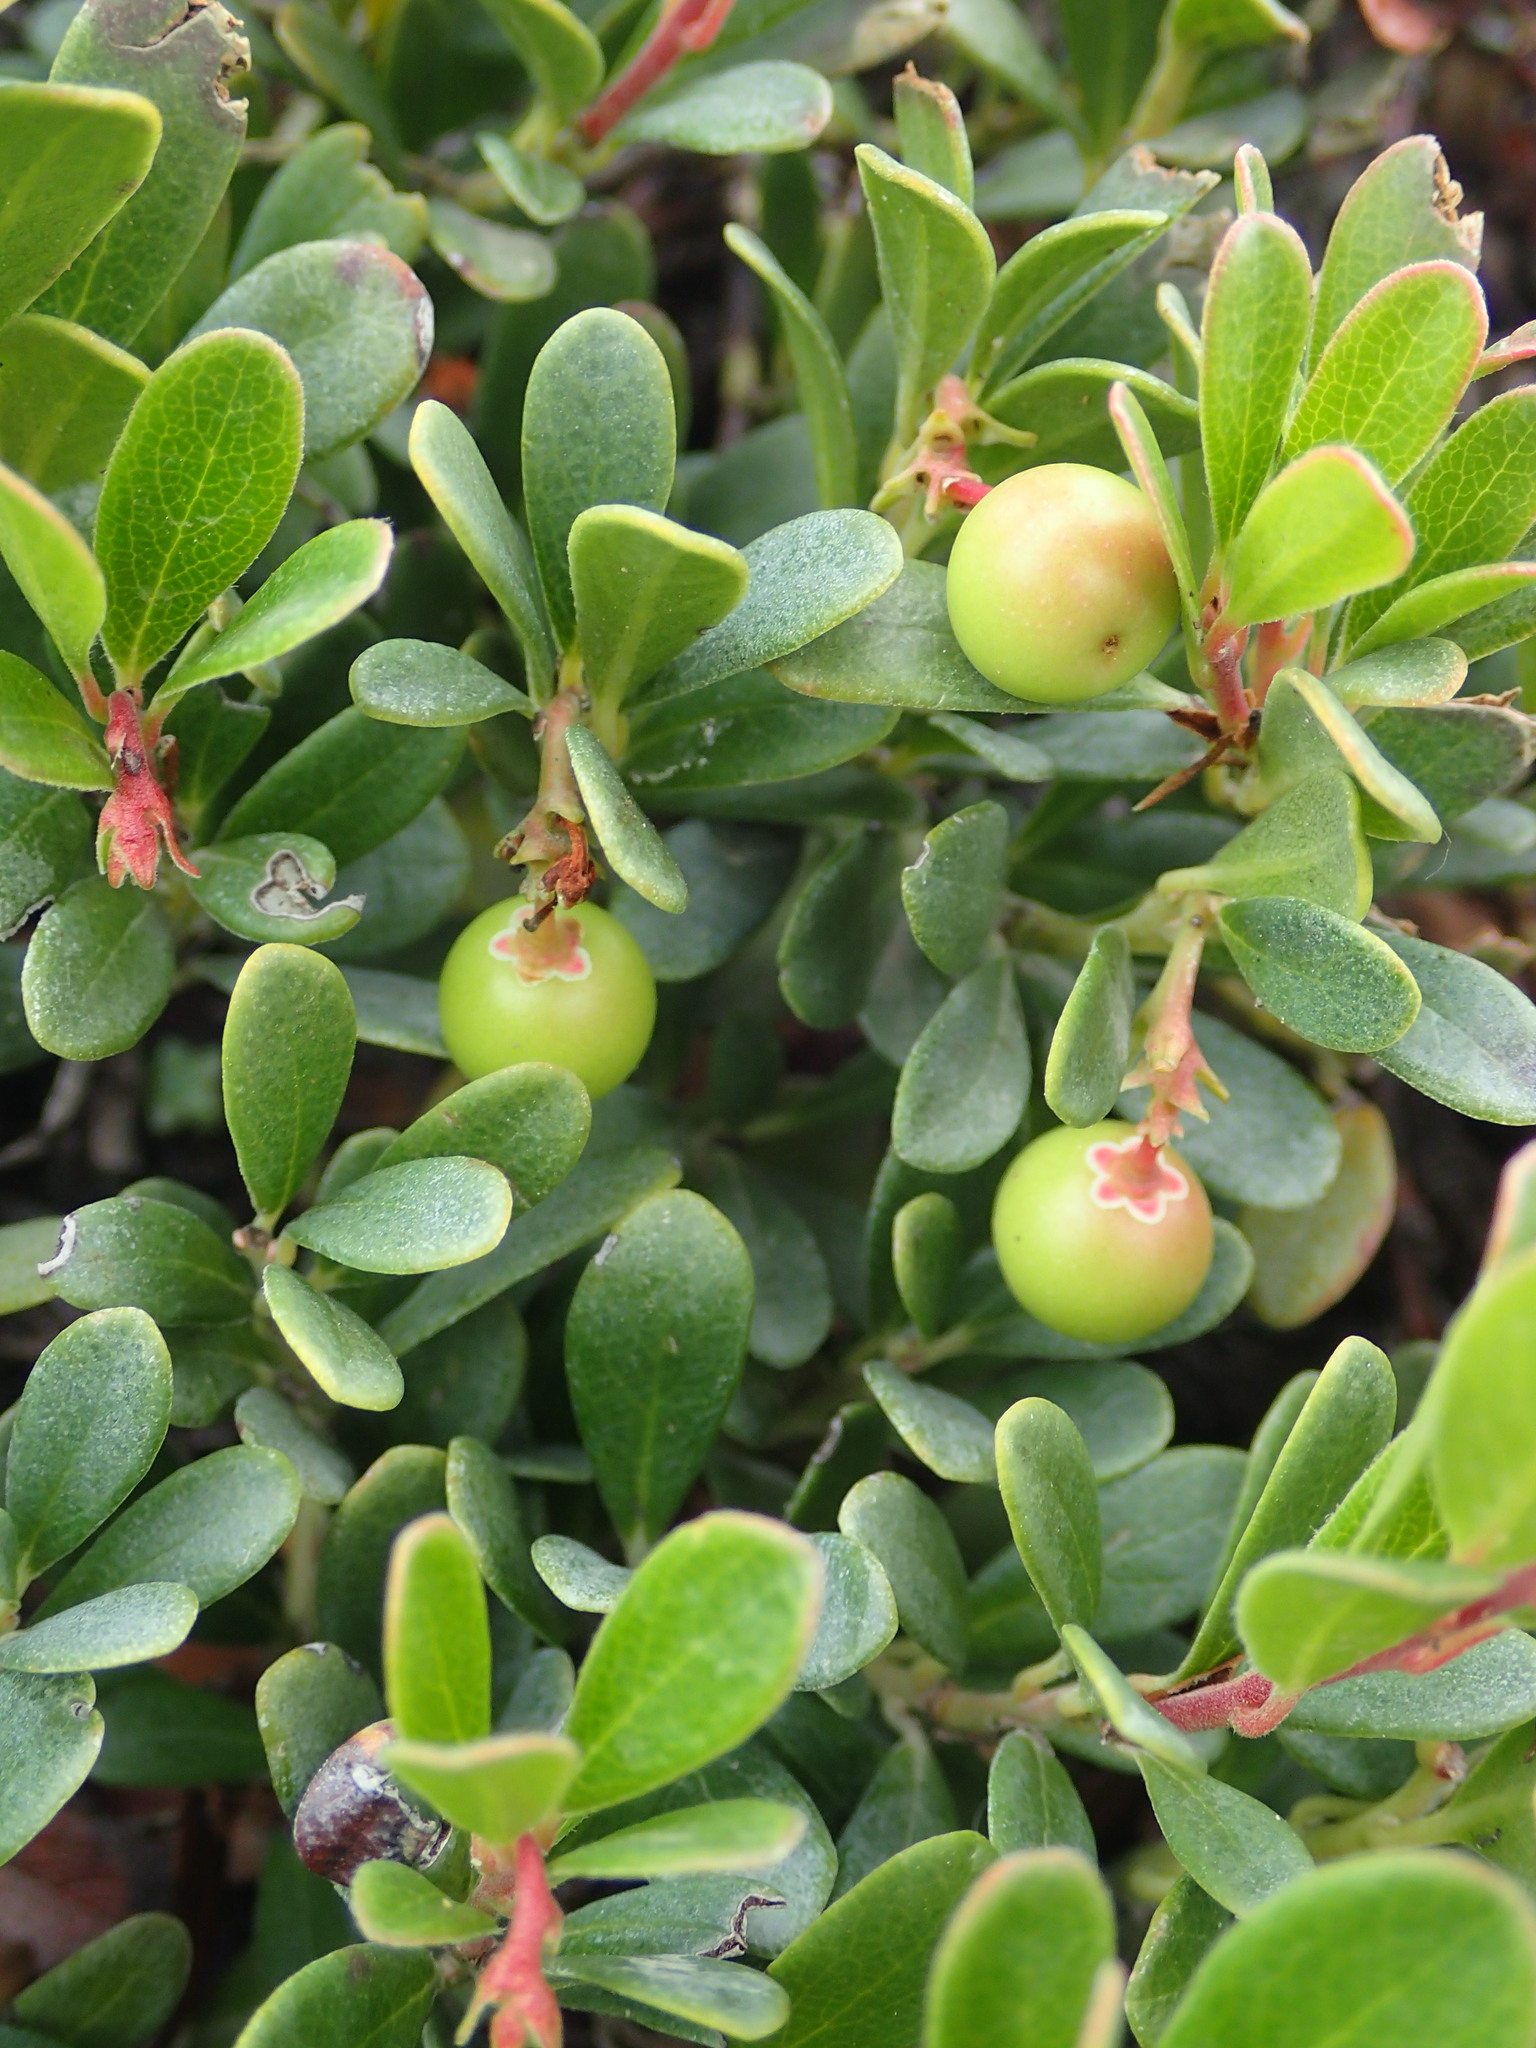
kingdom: Plantae
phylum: Tracheophyta
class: Magnoliopsida
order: Ericales
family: Ericaceae
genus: Arctostaphylos
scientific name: Arctostaphylos uva-ursi
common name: Bearberry
